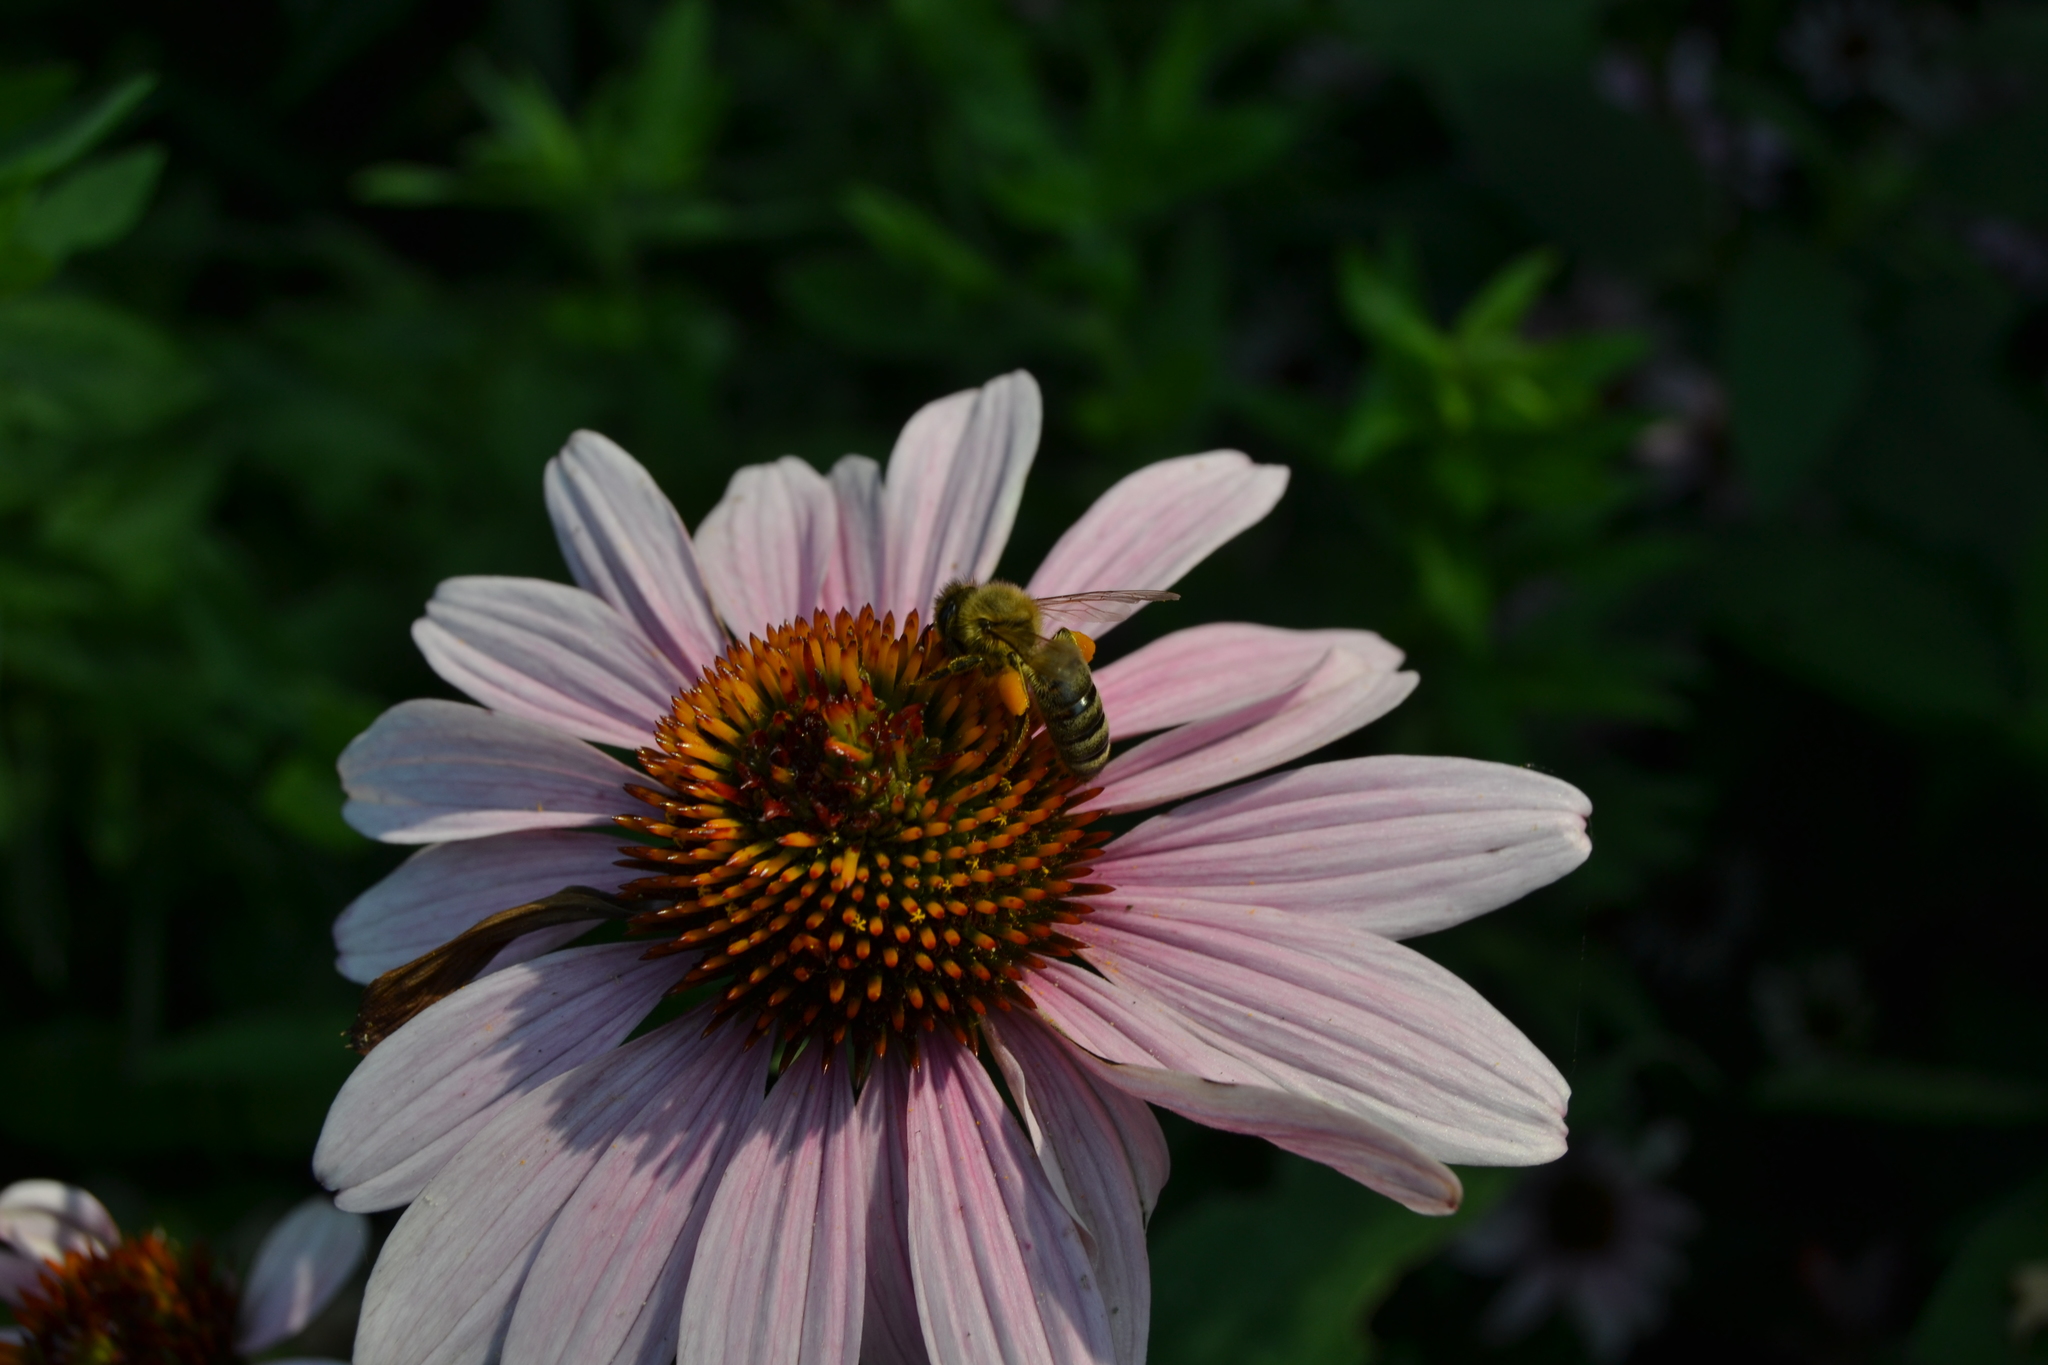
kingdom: Animalia
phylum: Arthropoda
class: Insecta
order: Hymenoptera
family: Apidae
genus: Apis
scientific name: Apis mellifera
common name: Honey bee
